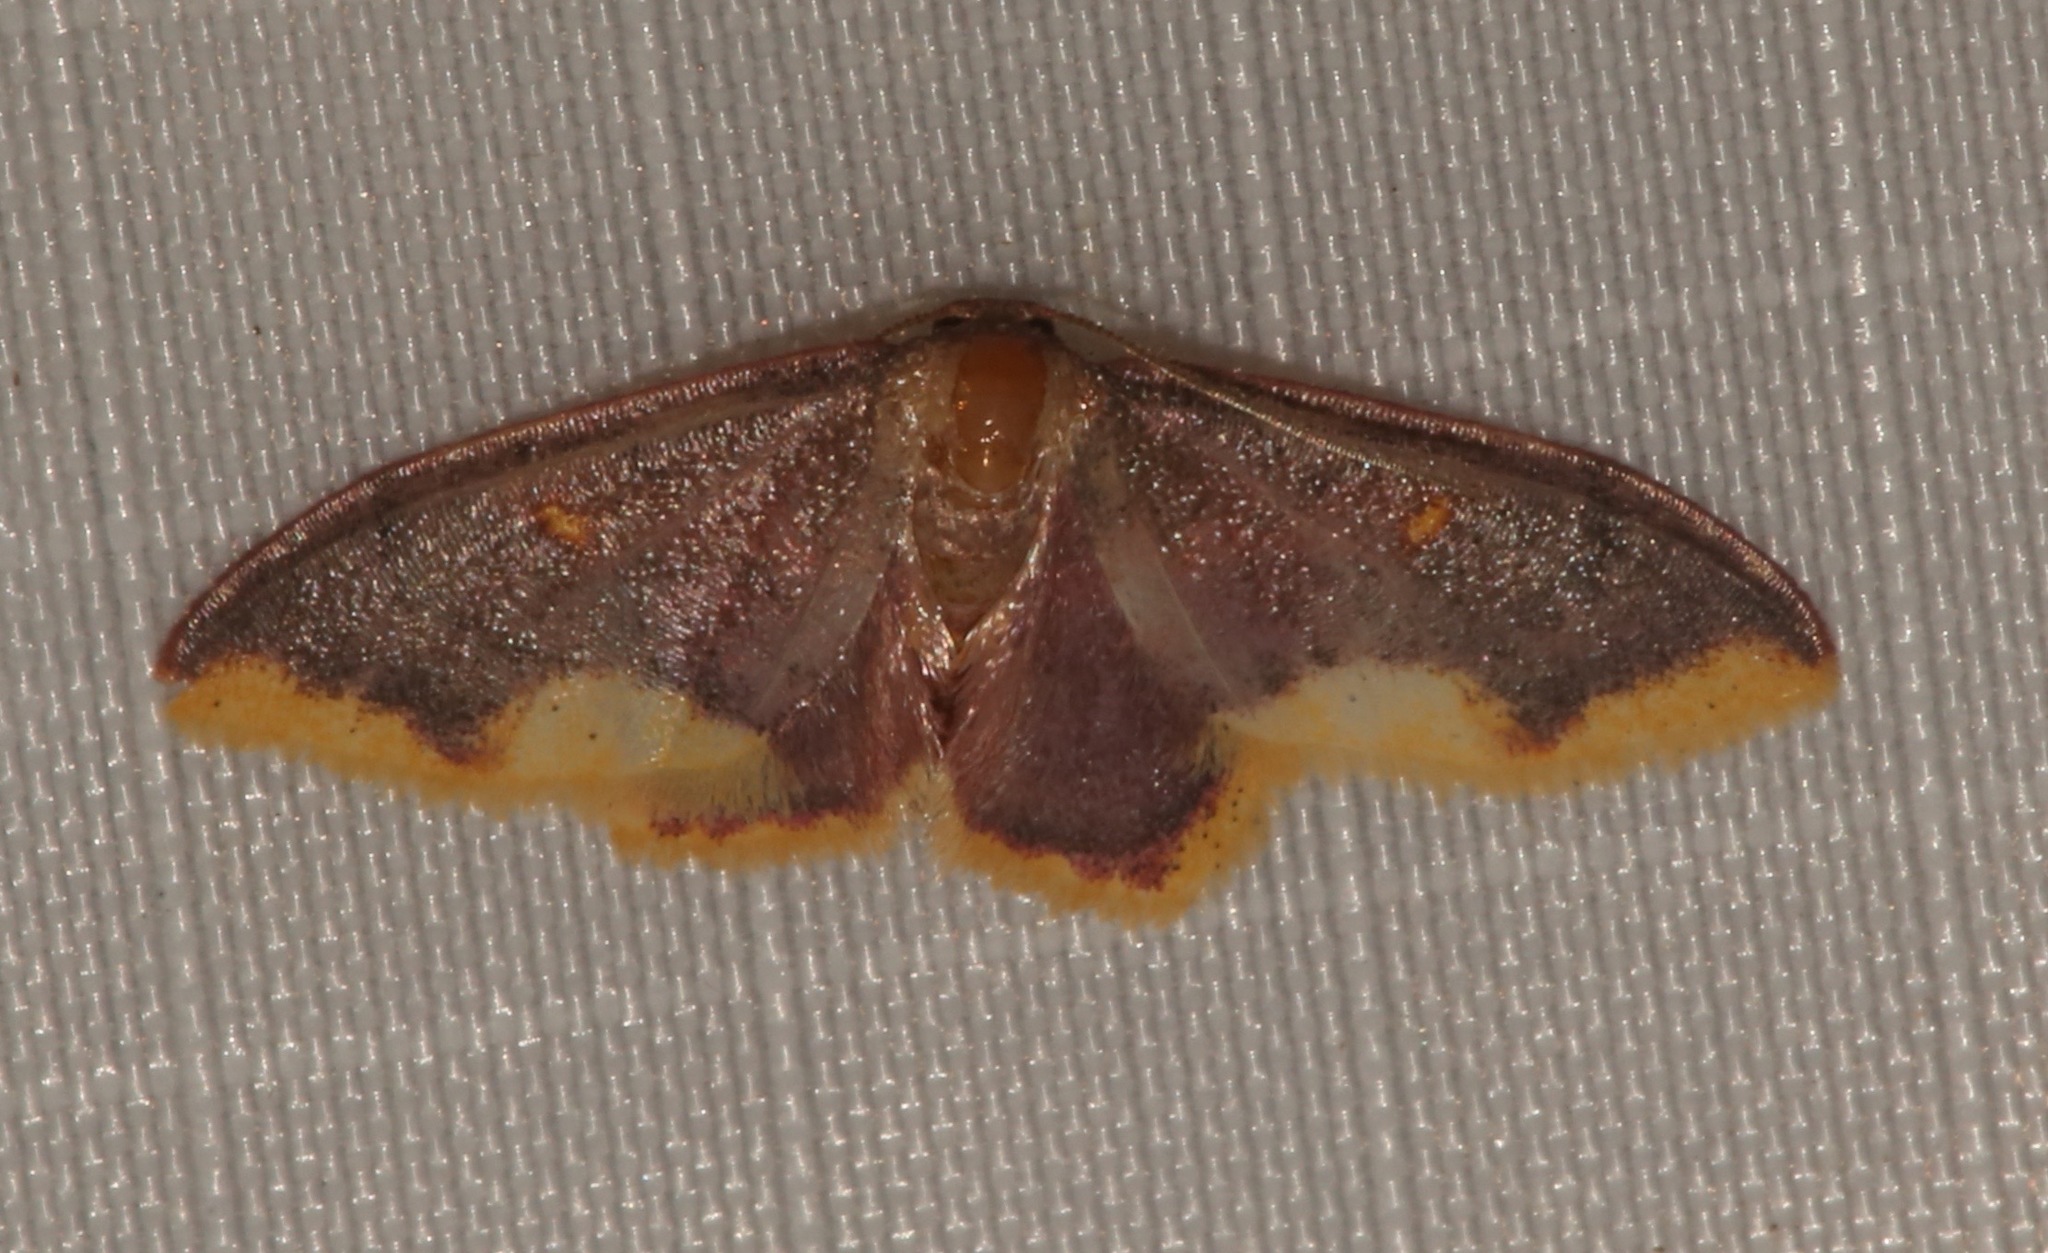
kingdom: Animalia
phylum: Arthropoda
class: Insecta
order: Lepidoptera
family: Geometridae
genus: Lophosis
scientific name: Lophosis labeculata
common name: Stained lophosis moth
